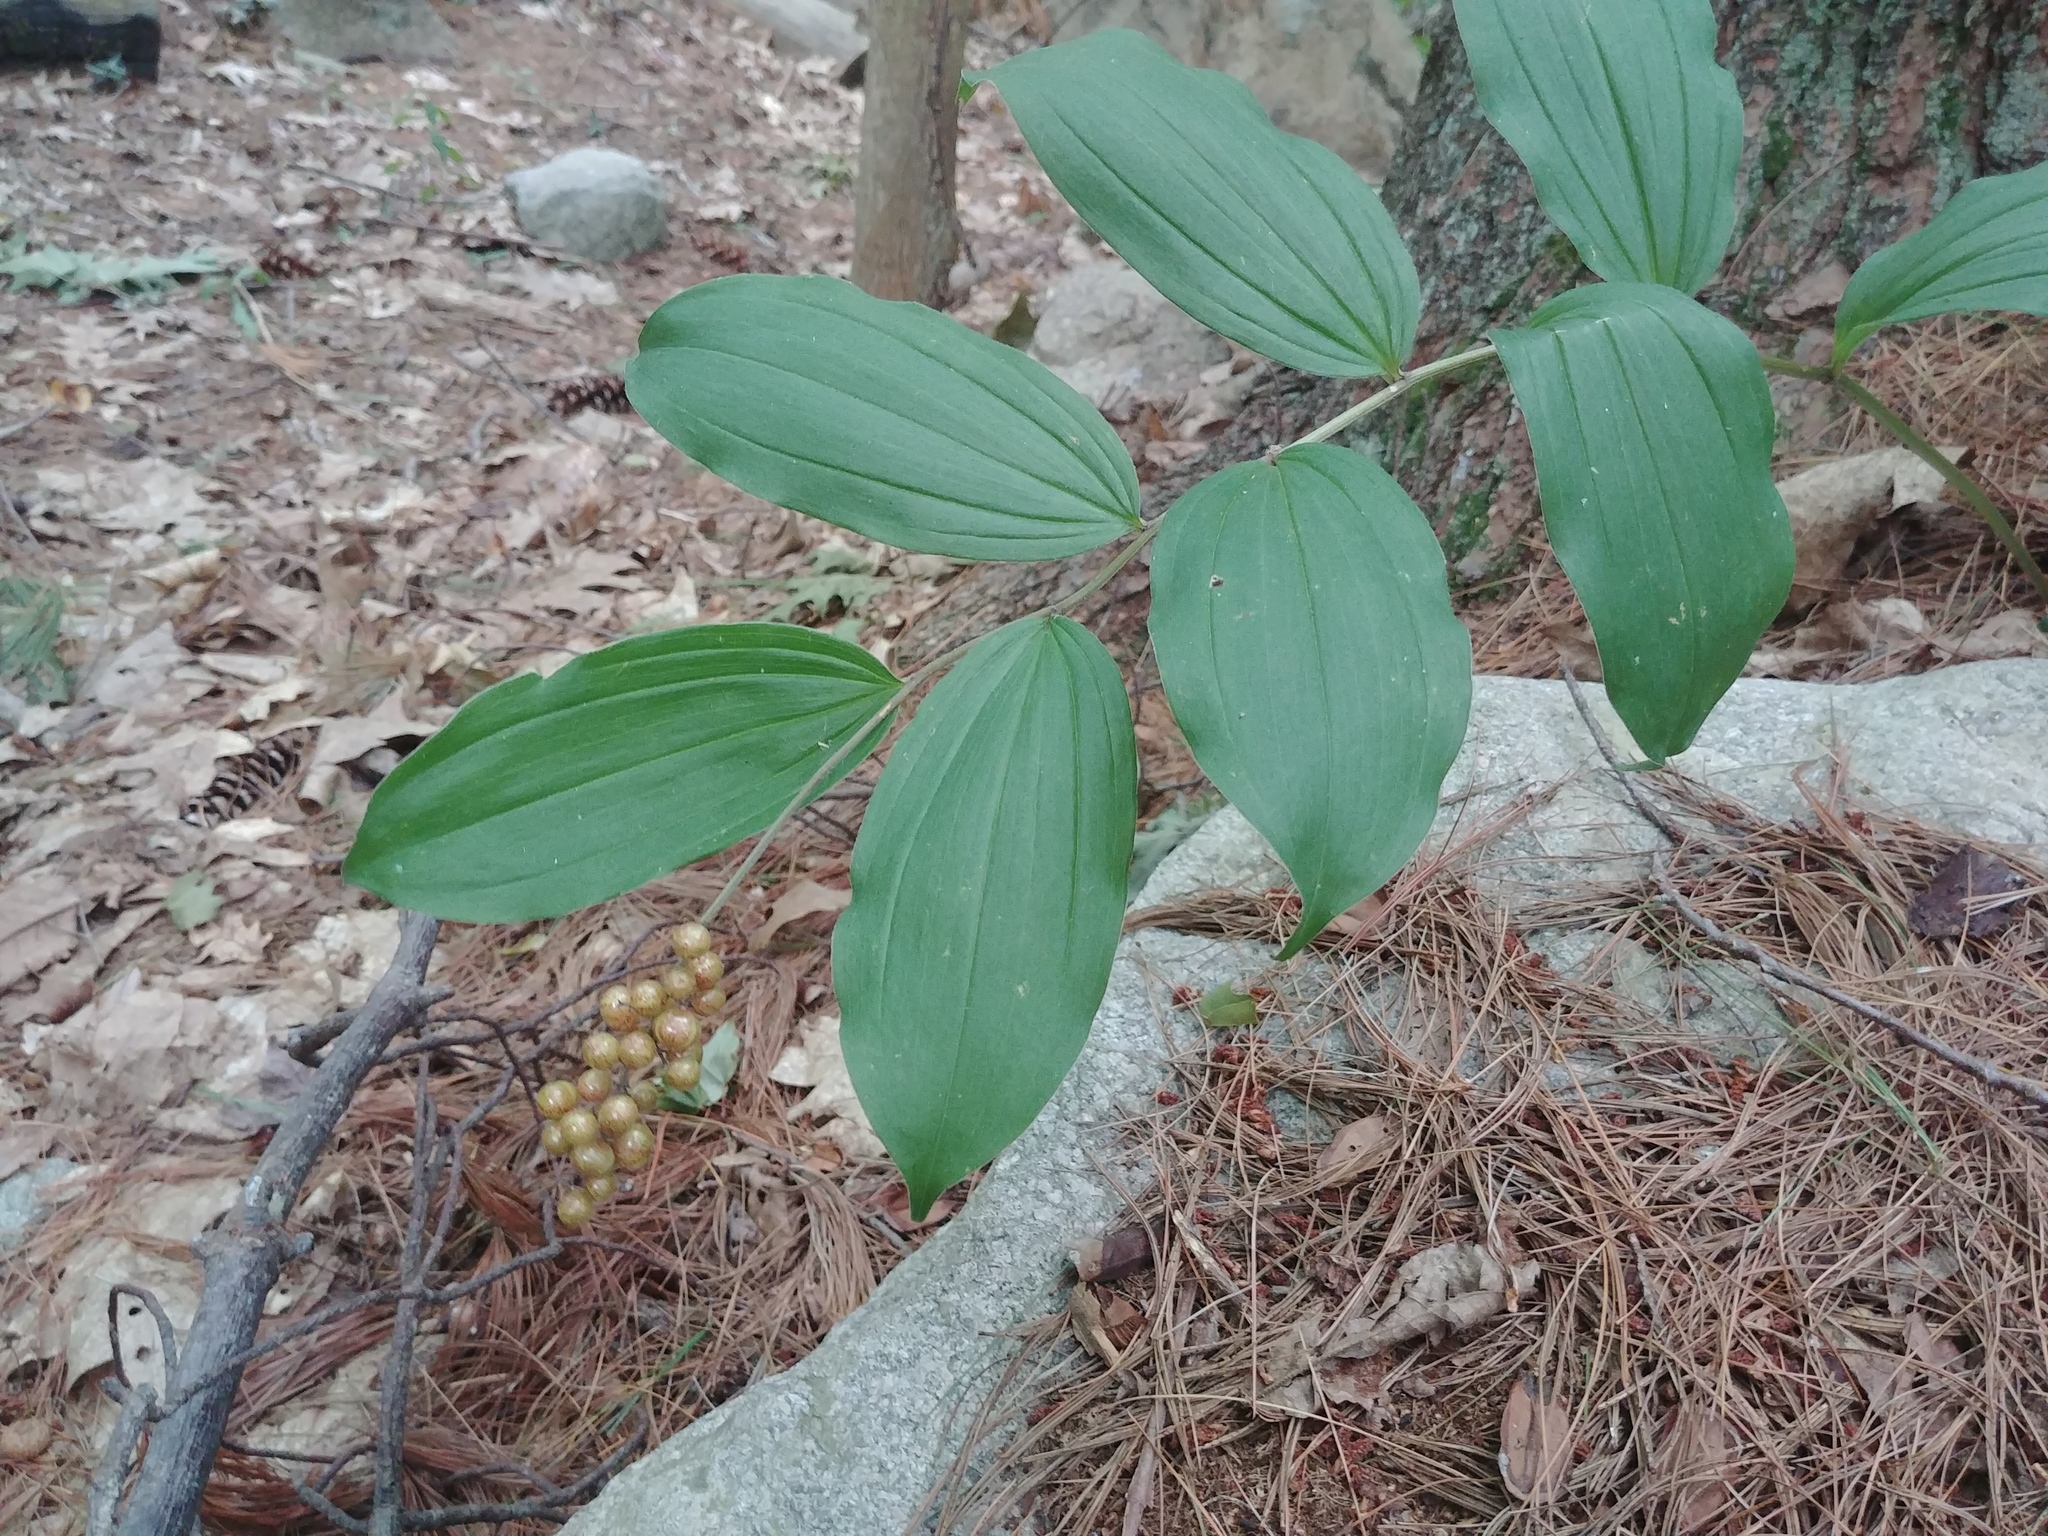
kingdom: Plantae
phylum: Tracheophyta
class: Liliopsida
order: Asparagales
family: Asparagaceae
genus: Maianthemum
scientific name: Maianthemum racemosum
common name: False spikenard
